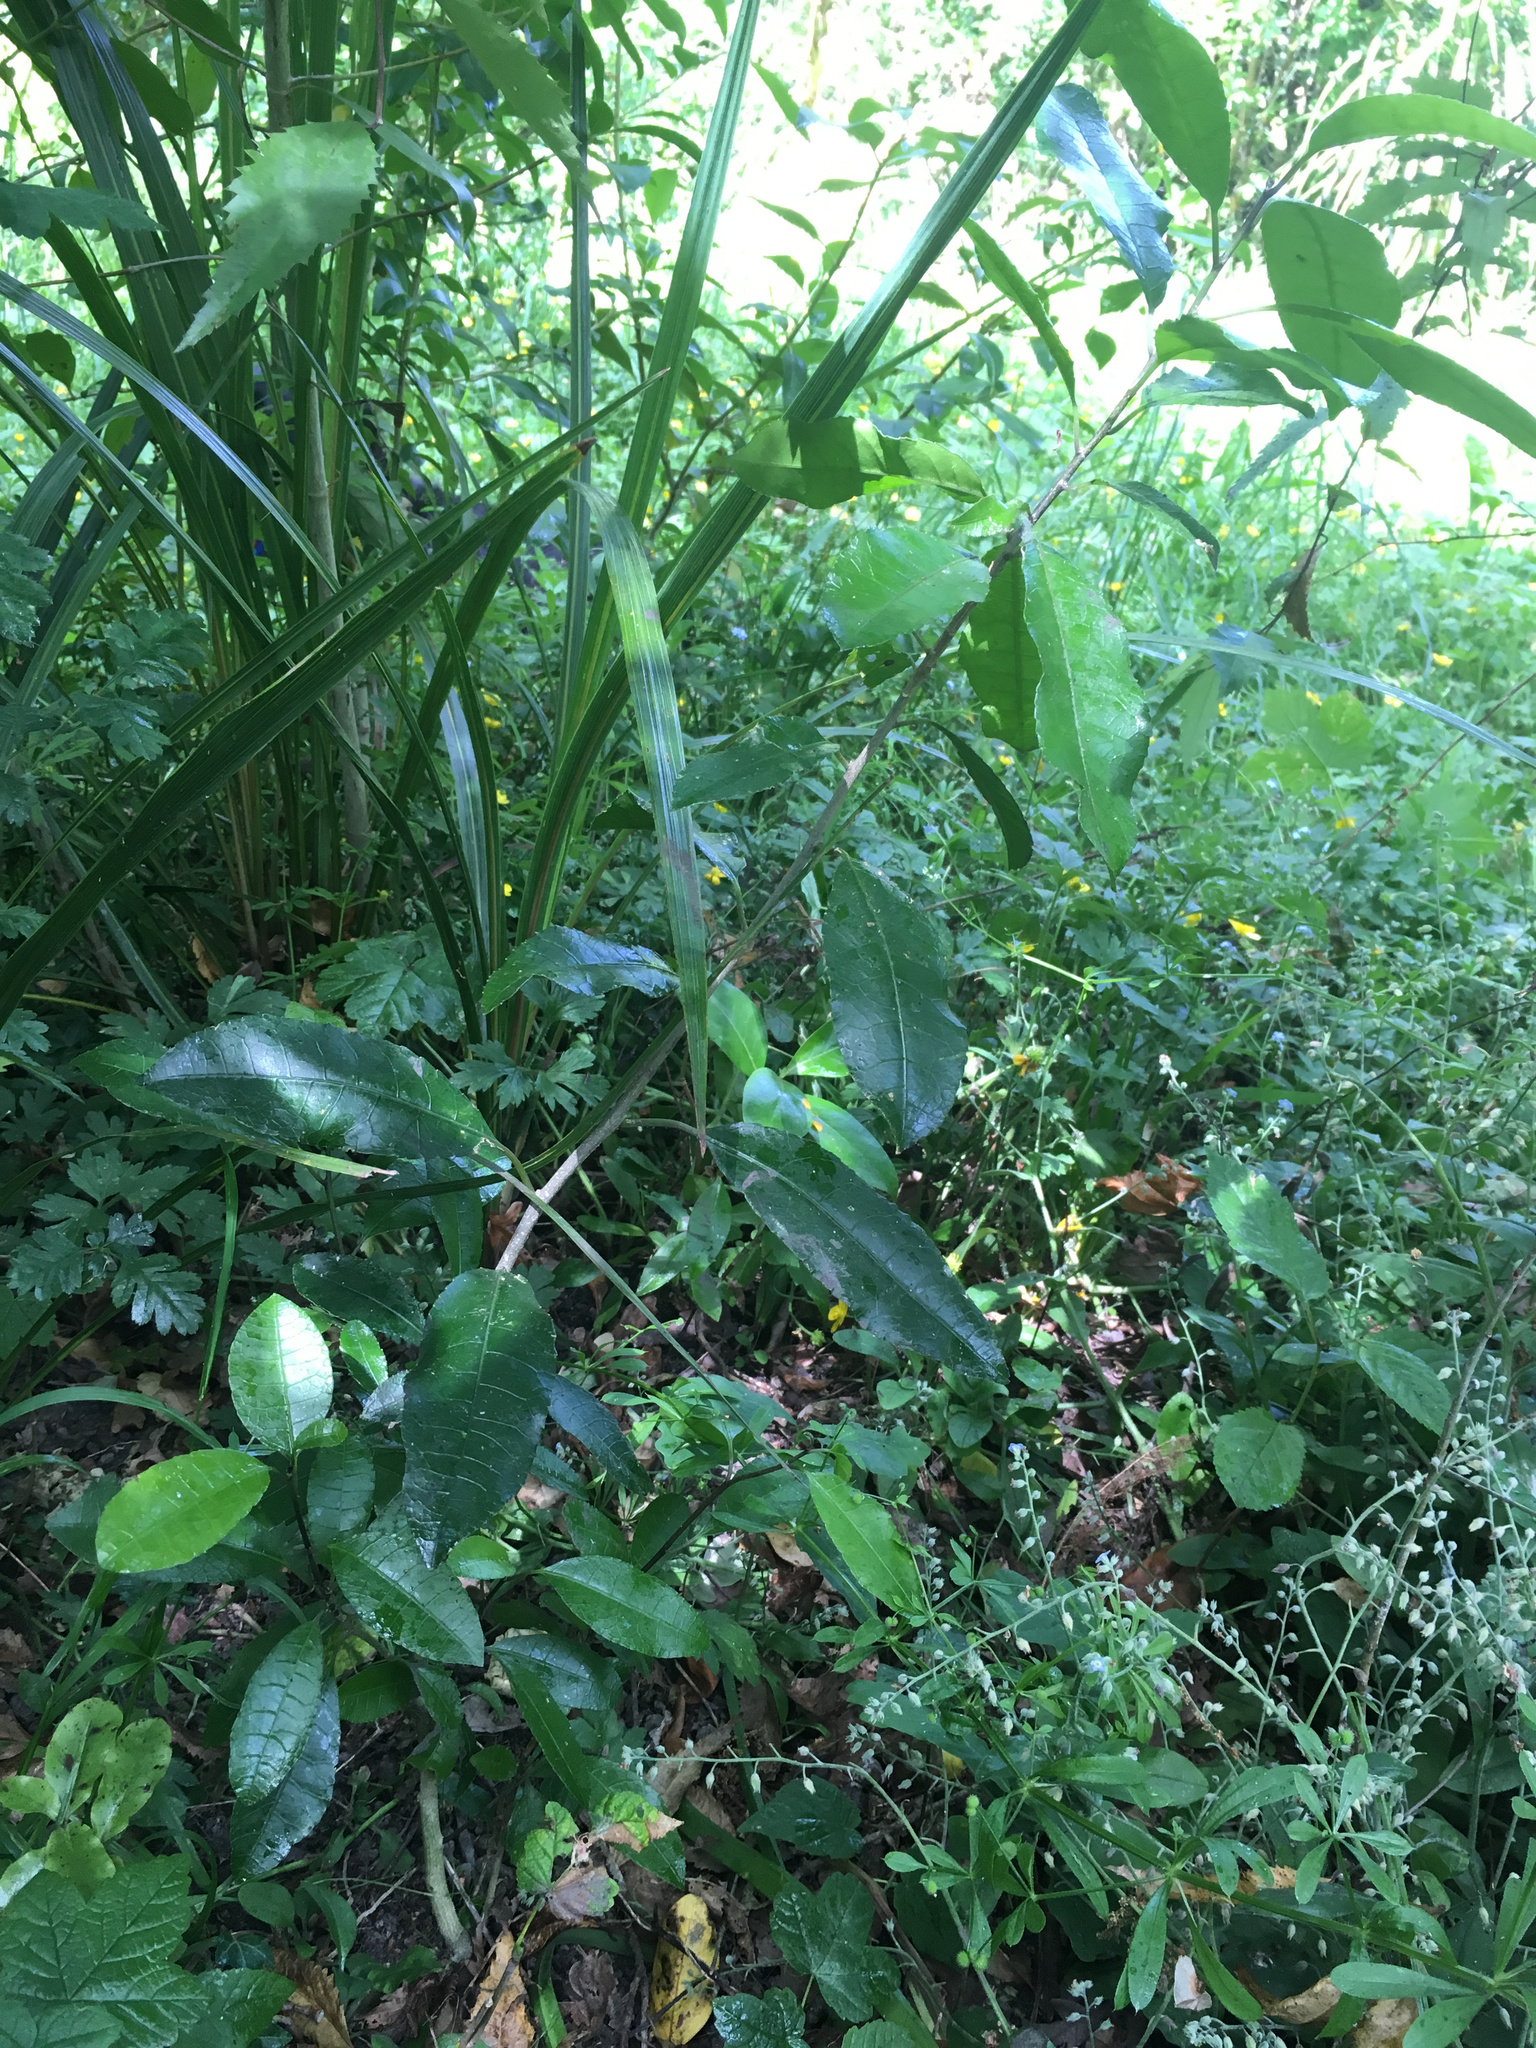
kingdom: Plantae
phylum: Tracheophyta
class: Magnoliopsida
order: Malpighiales
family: Violaceae
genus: Melicytus
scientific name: Melicytus ramiflorus
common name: Mahoe
